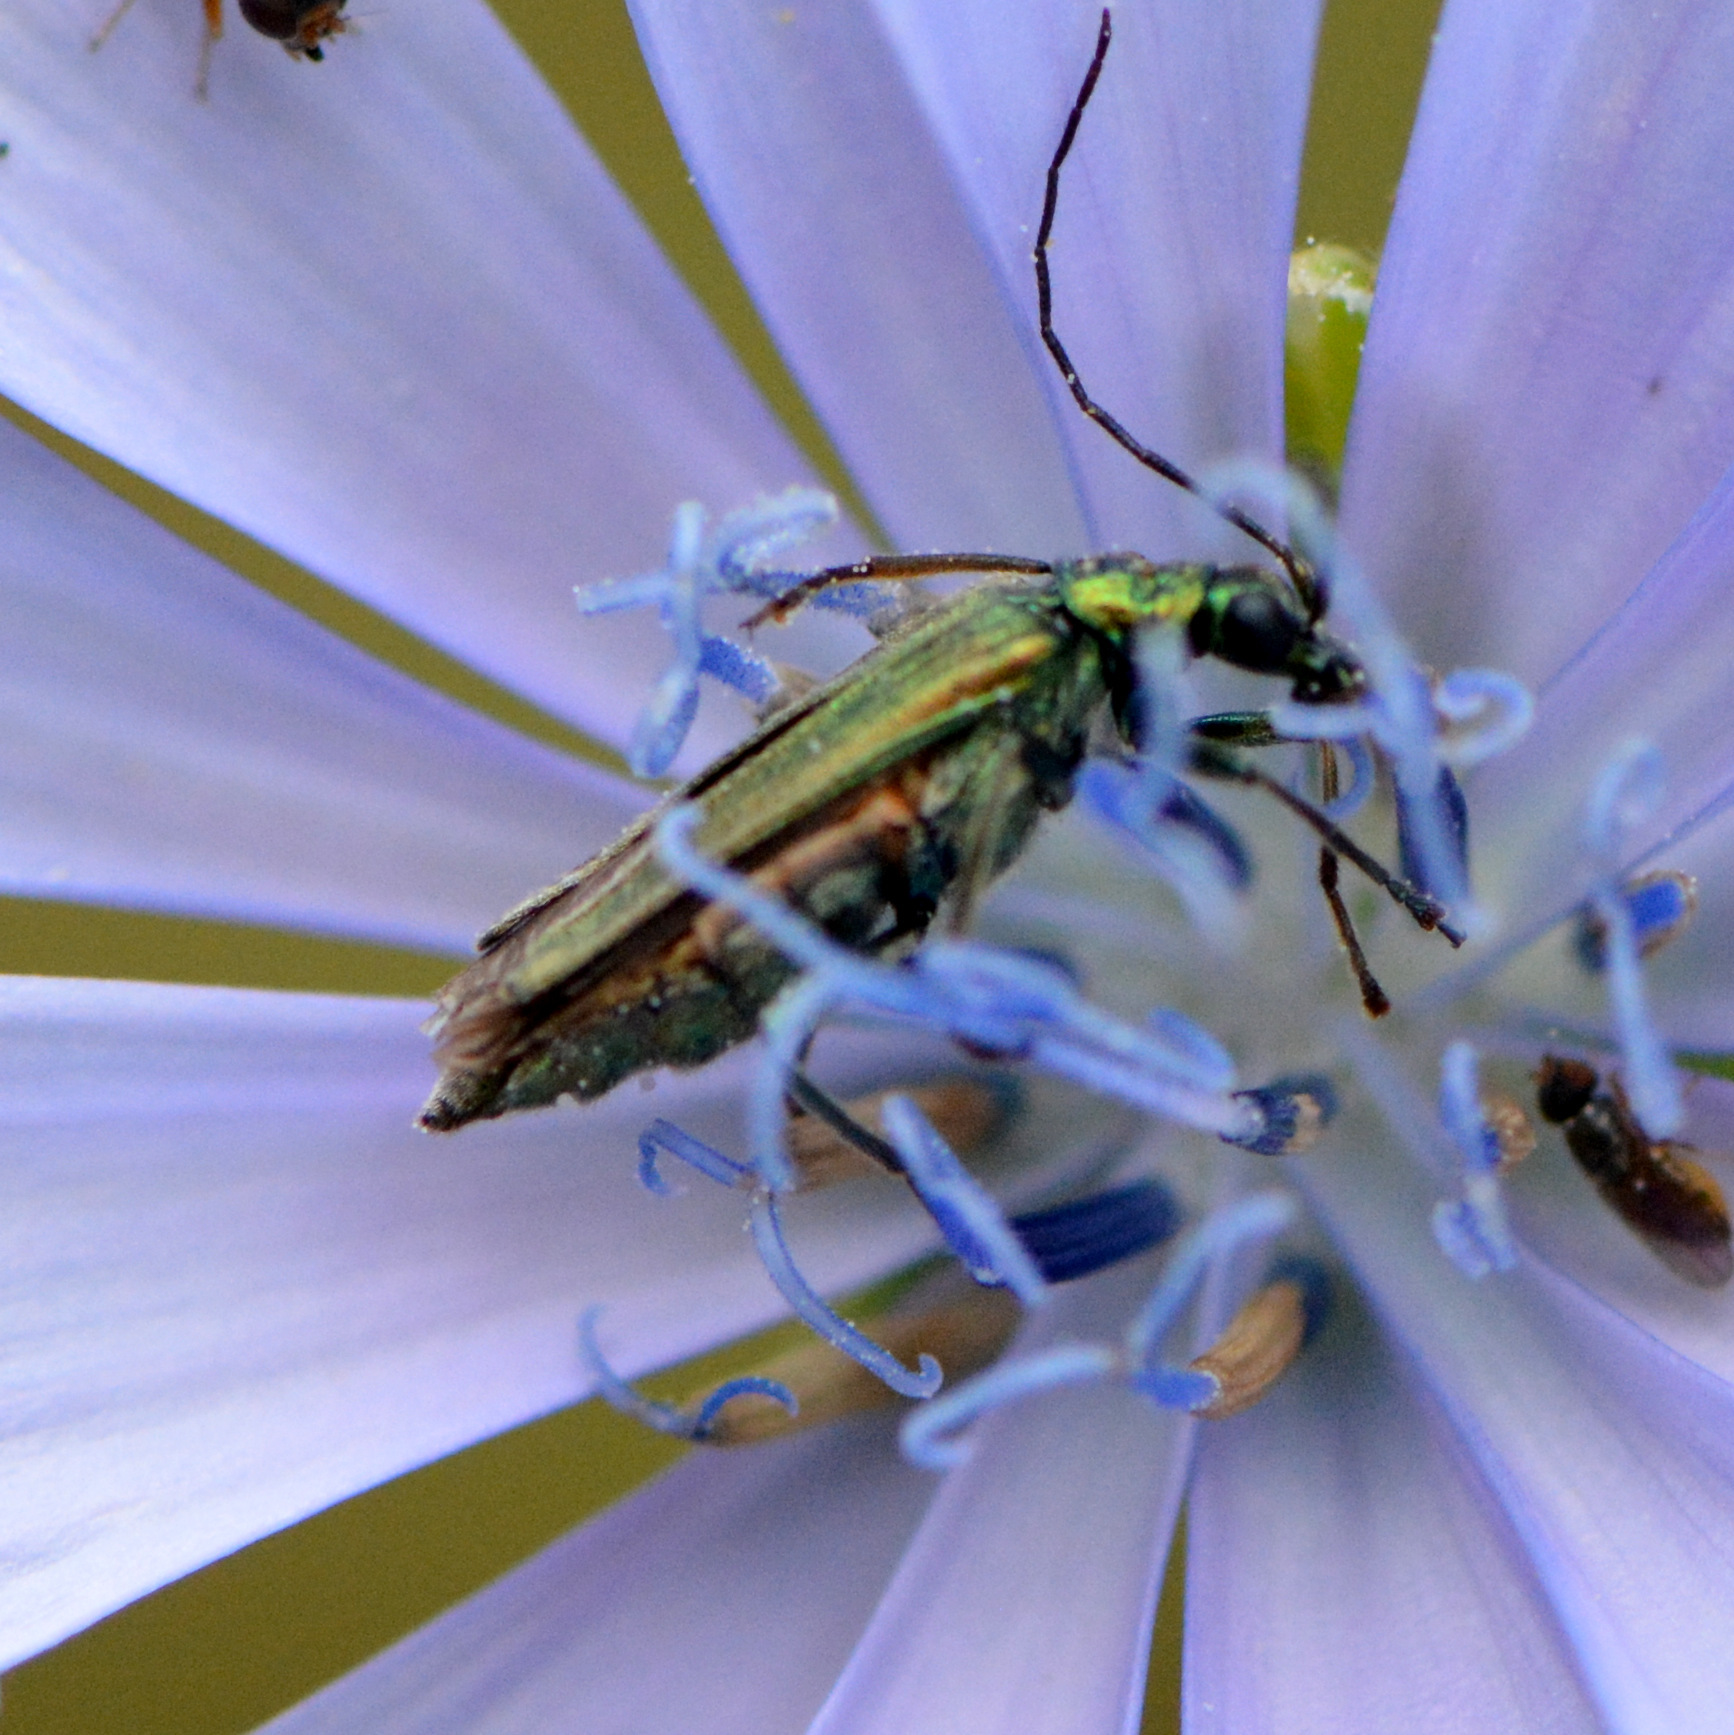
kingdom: Animalia
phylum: Arthropoda
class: Insecta
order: Coleoptera
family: Oedemeridae
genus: Oedemera
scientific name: Oedemera nobilis
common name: Swollen-thighed beetle
